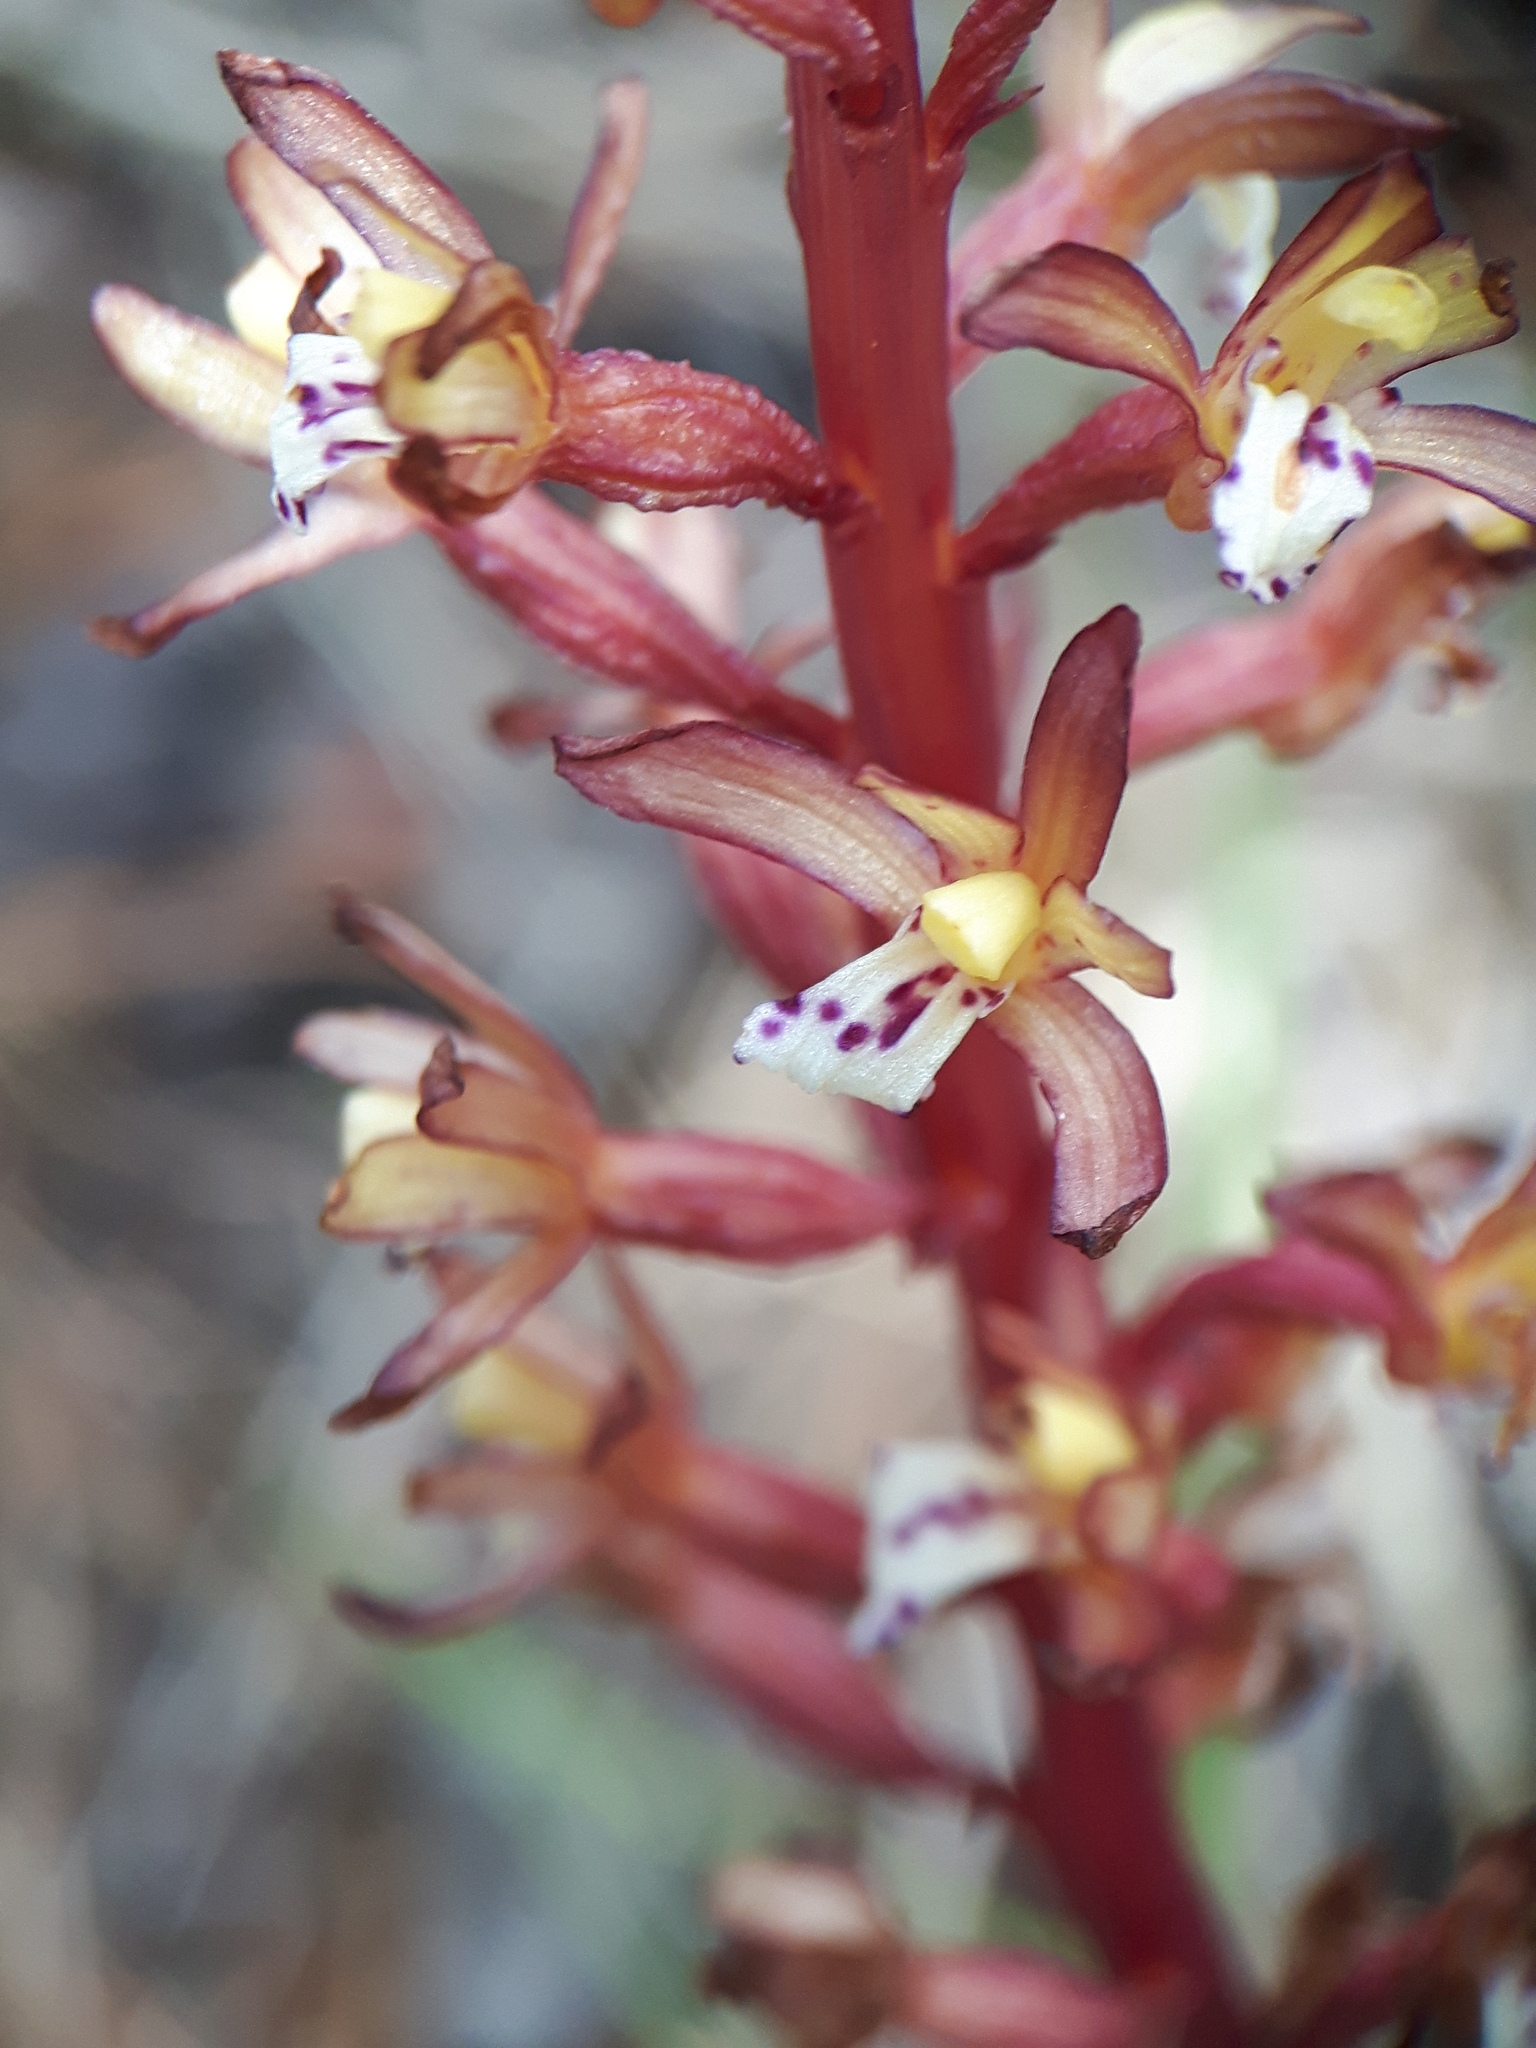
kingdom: Plantae
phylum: Tracheophyta
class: Liliopsida
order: Asparagales
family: Orchidaceae
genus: Corallorhiza
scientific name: Corallorhiza maculata
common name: Spotted coralroot
